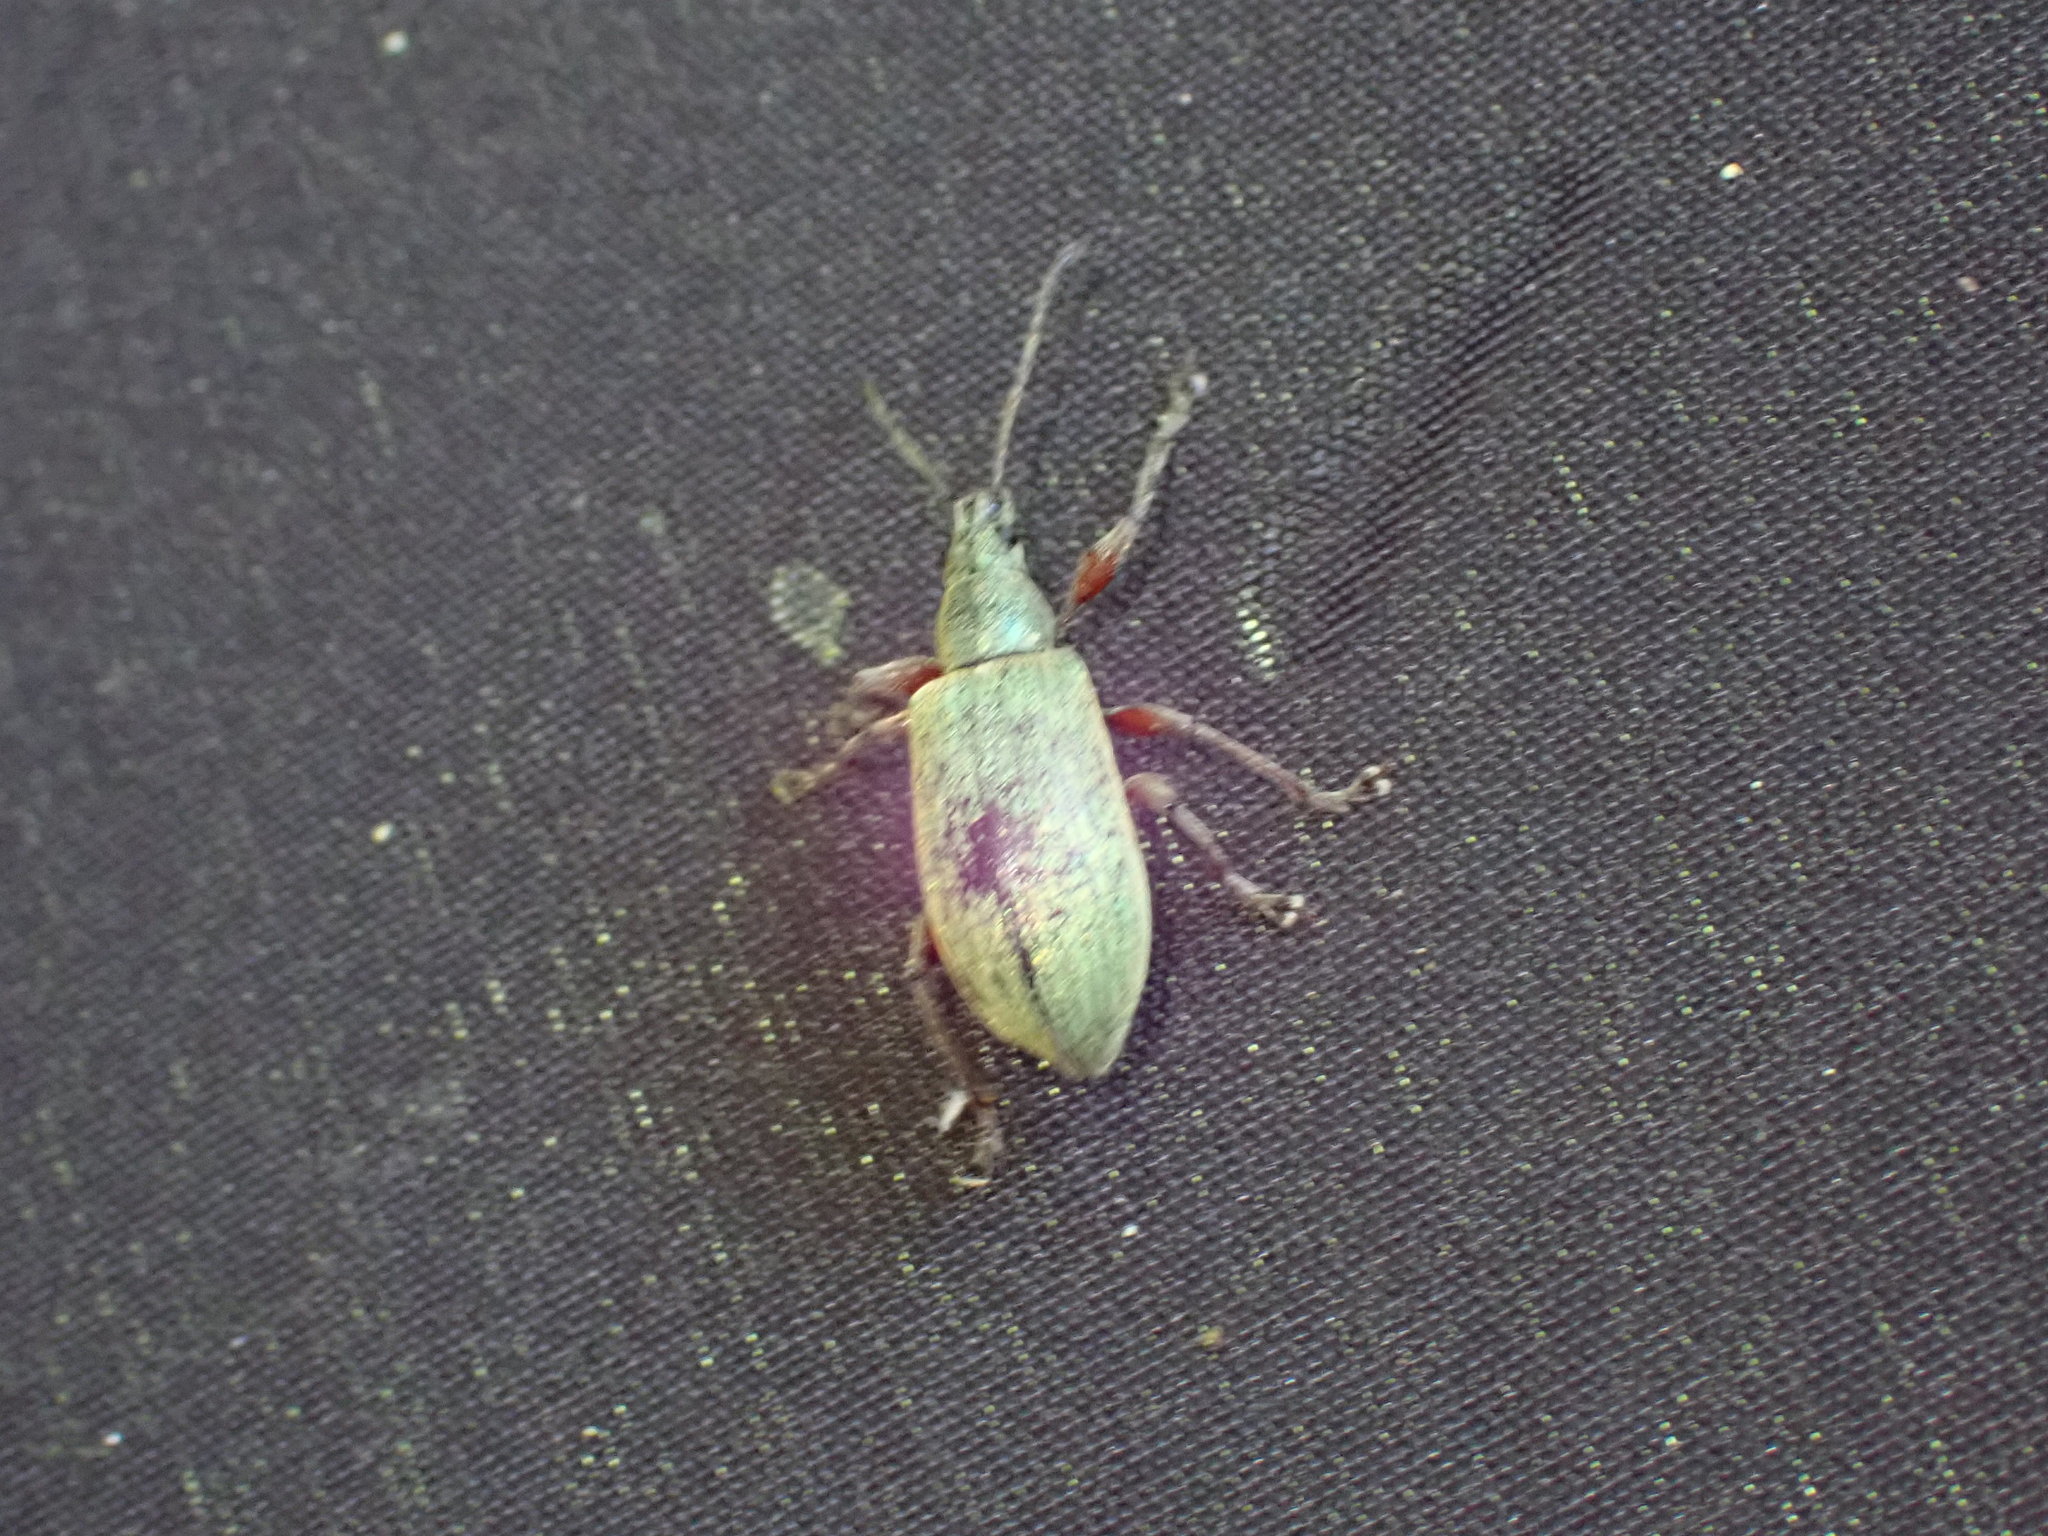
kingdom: Animalia
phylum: Arthropoda
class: Insecta
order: Coleoptera
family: Curculionidae
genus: Phyllobius
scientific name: Phyllobius pomaceus
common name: Green nettle weevil
